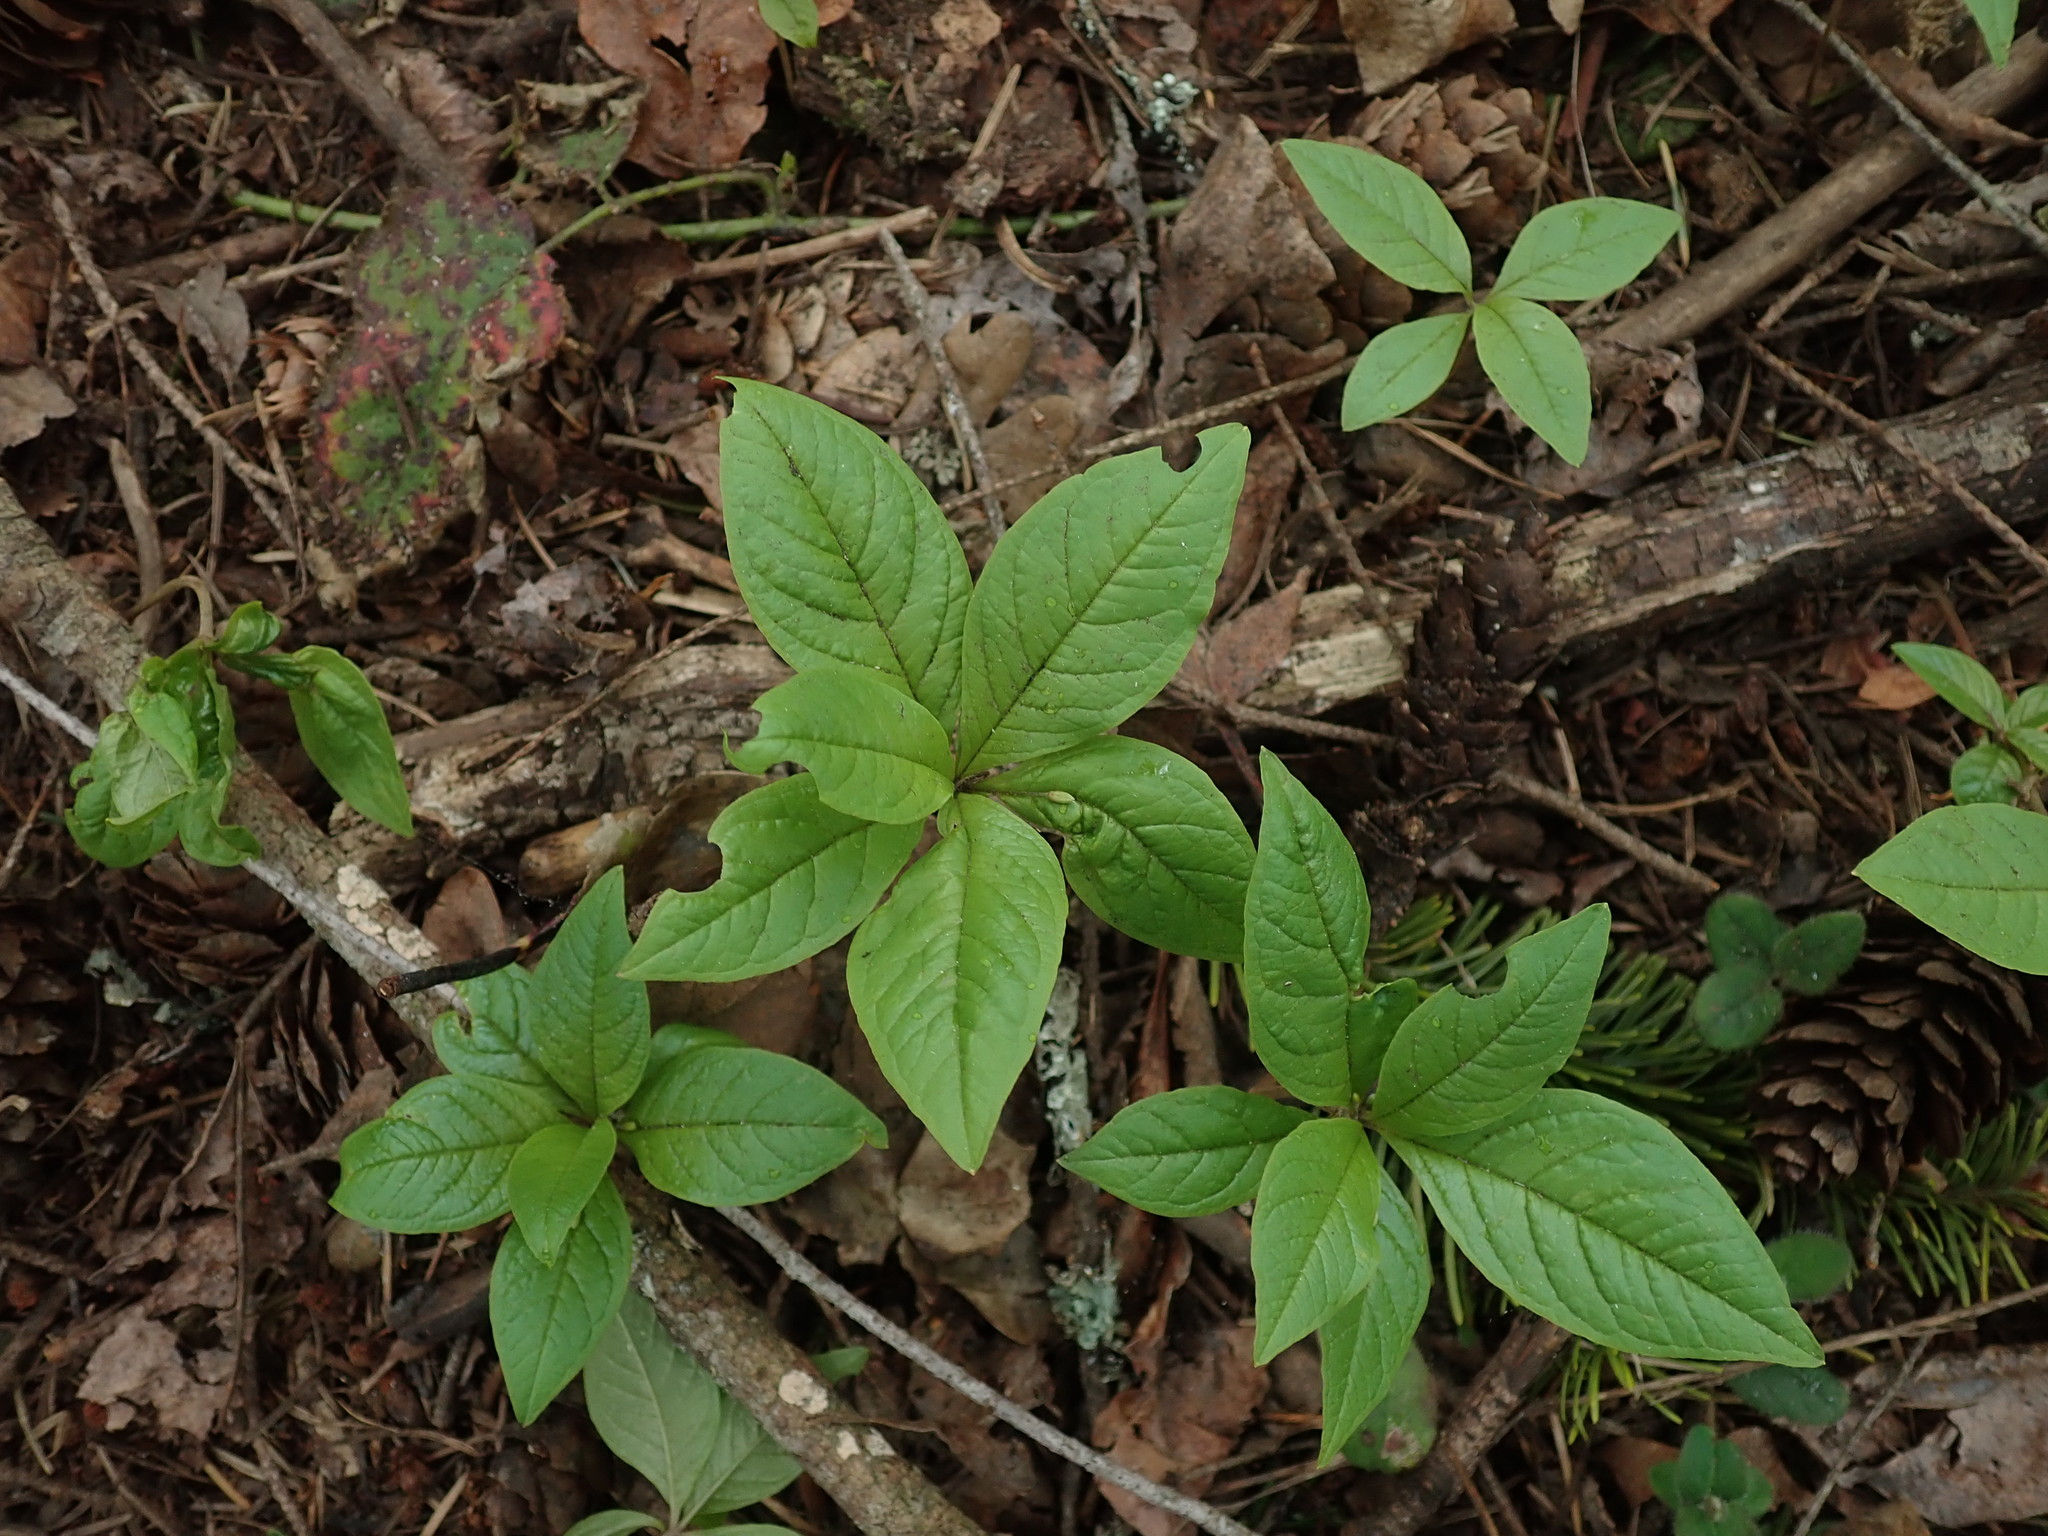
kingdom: Plantae
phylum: Tracheophyta
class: Magnoliopsida
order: Ericales
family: Primulaceae
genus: Lysimachia
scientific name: Lysimachia latifolia
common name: Pacific starflower
